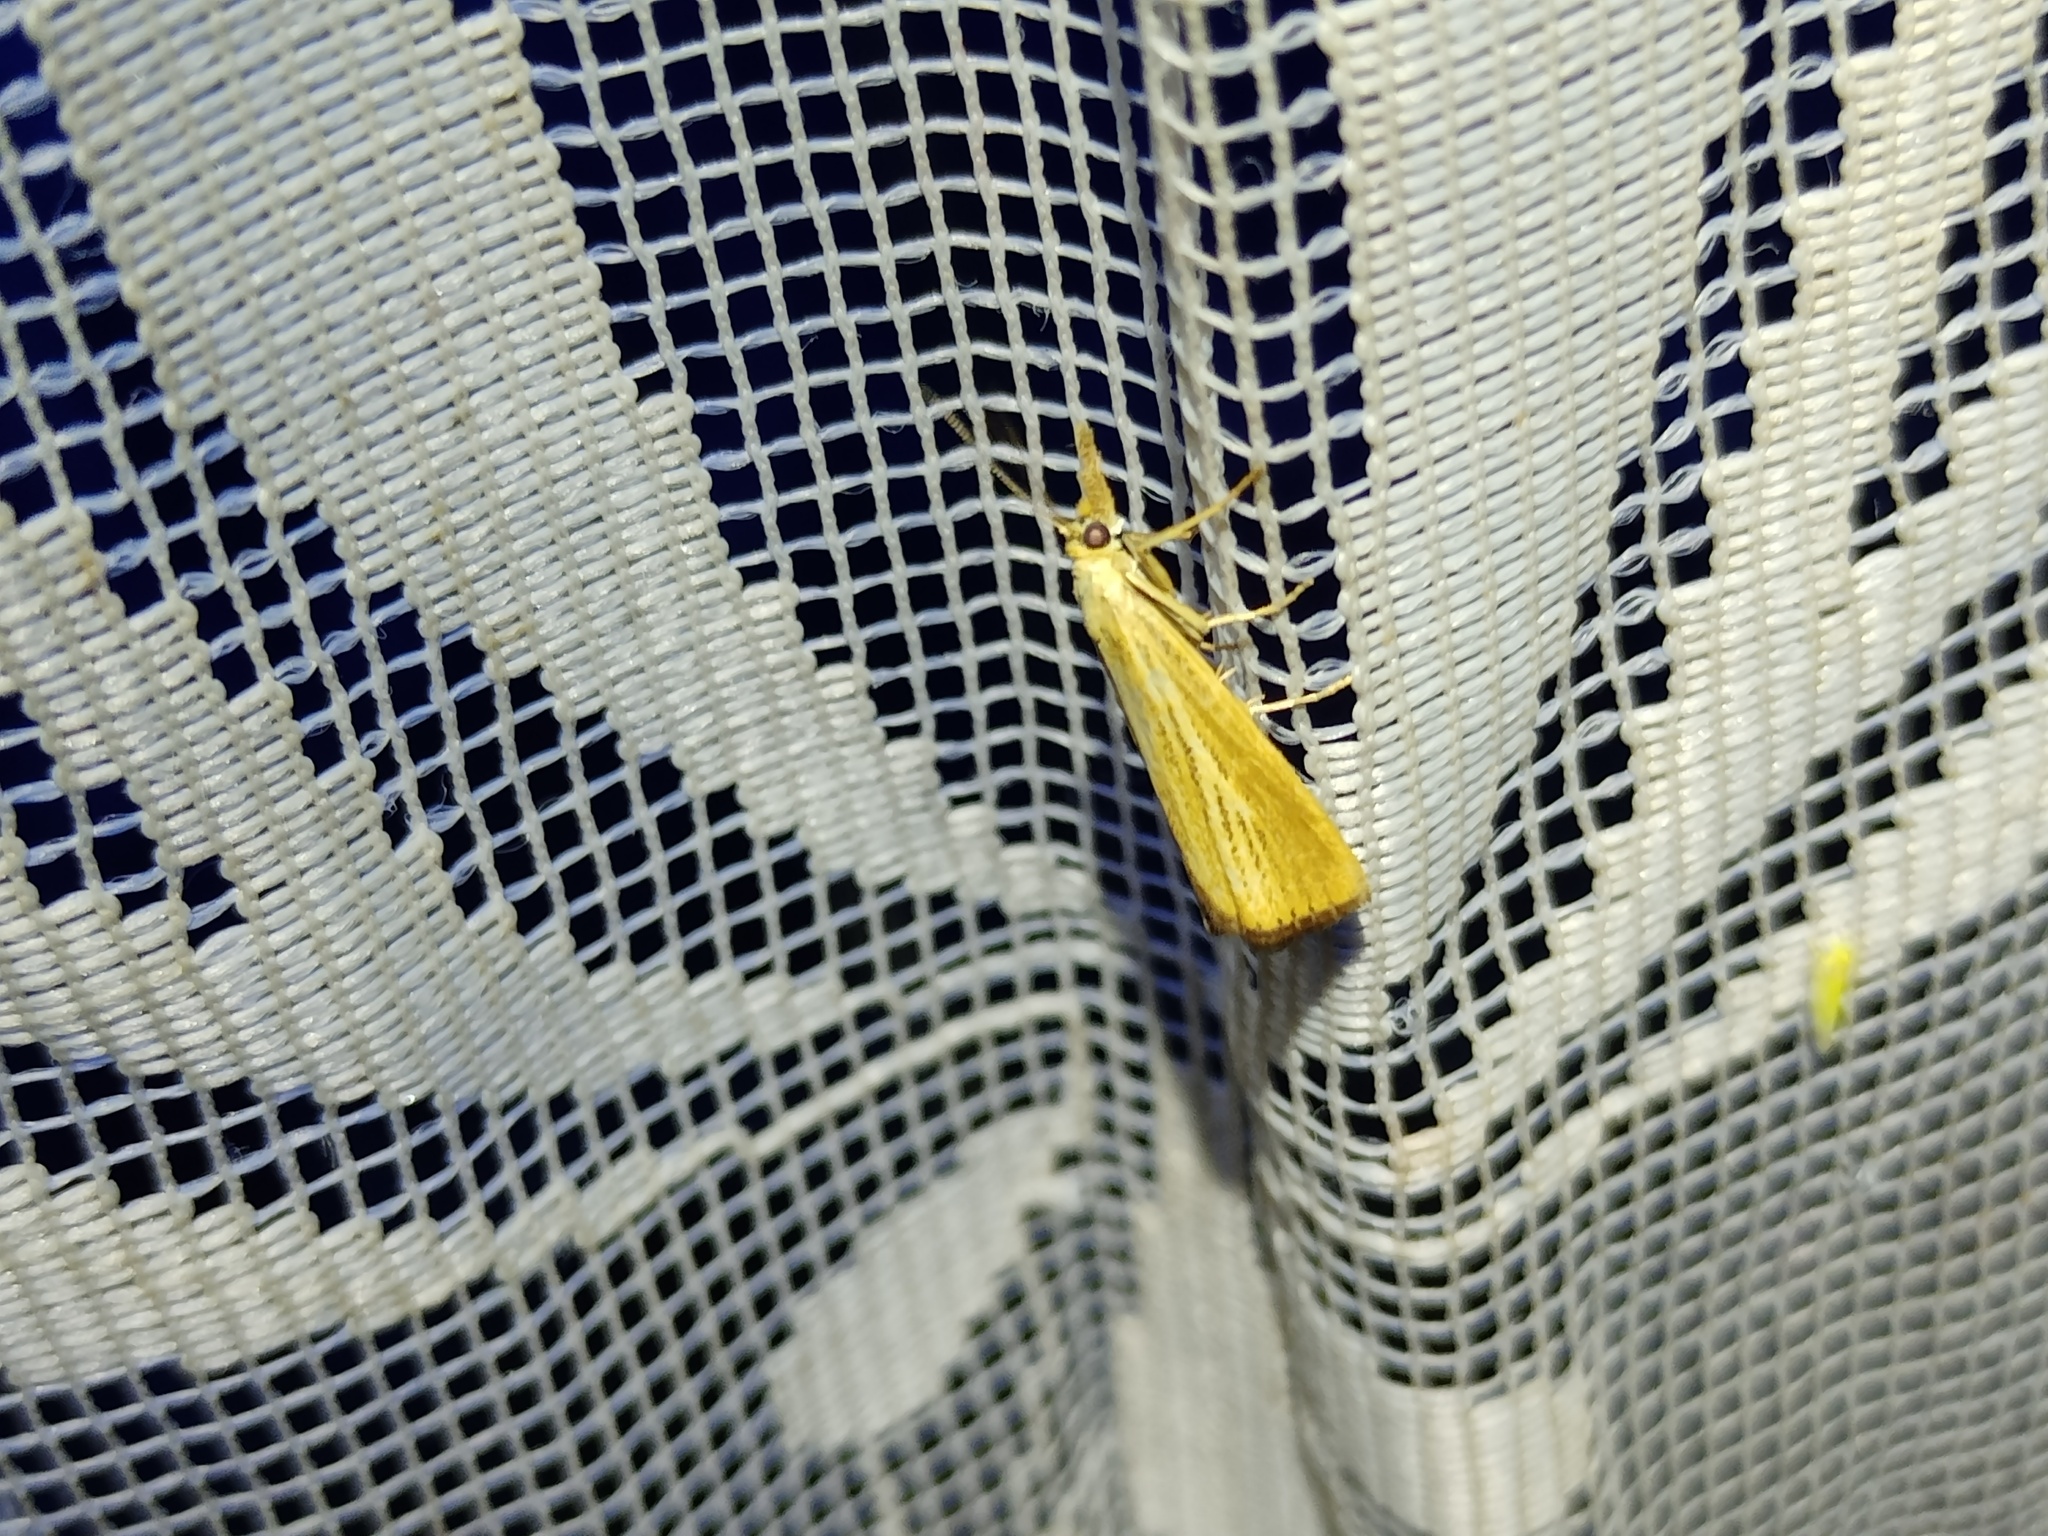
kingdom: Animalia
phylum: Arthropoda
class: Insecta
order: Lepidoptera
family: Crambidae
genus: Agriphila
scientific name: Agriphila straminella
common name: Straw grass-veneer
